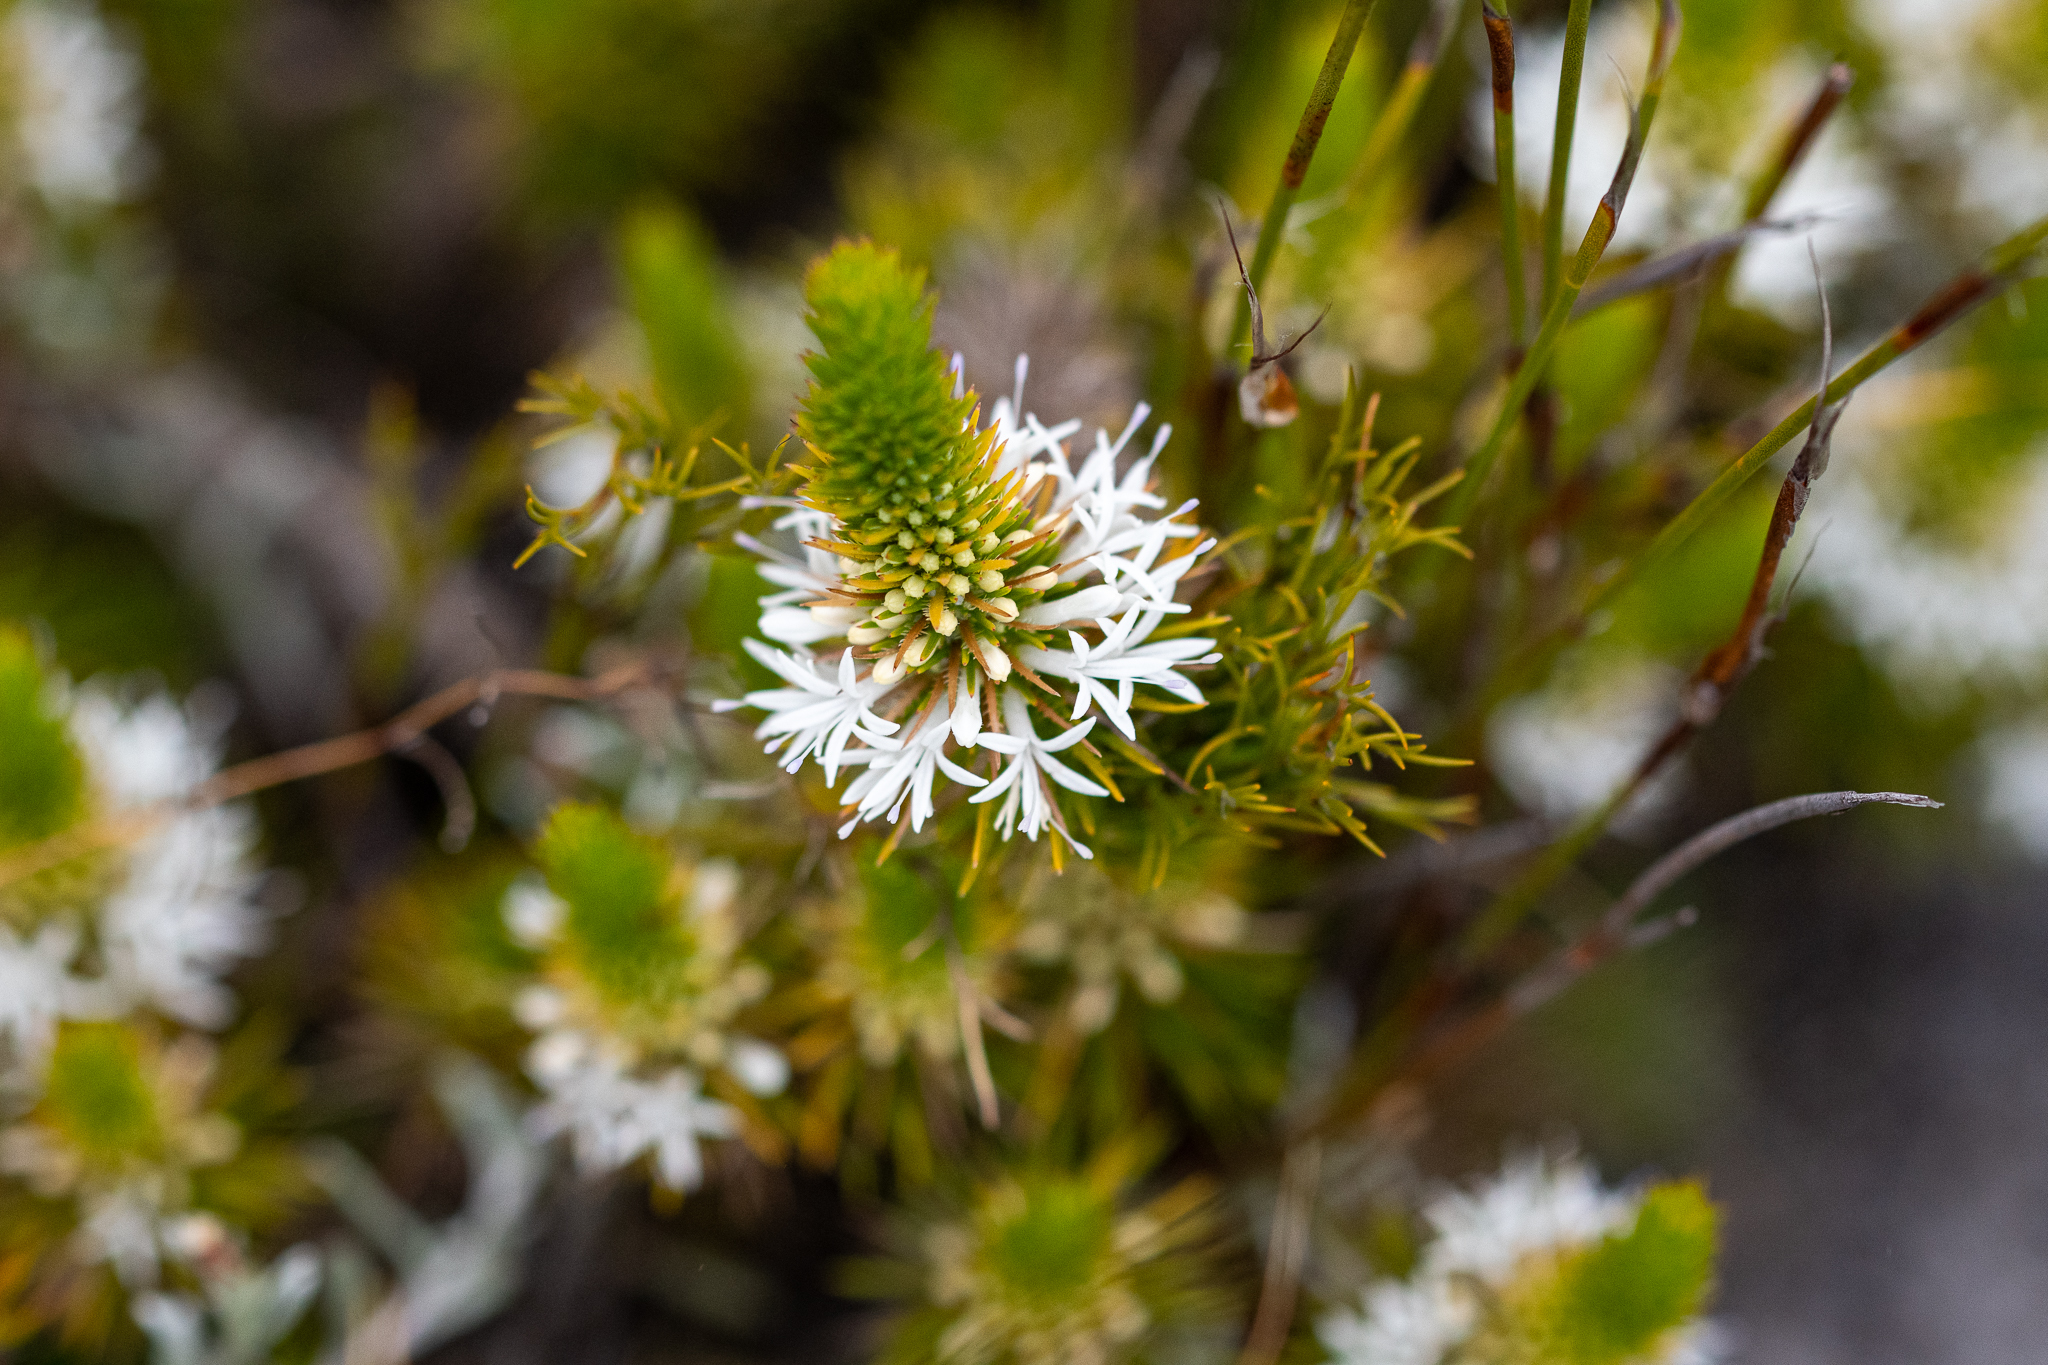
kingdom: Plantae
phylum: Tracheophyta
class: Magnoliopsida
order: Asterales
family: Campanulaceae
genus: Merciera
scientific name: Merciera leptoloba
